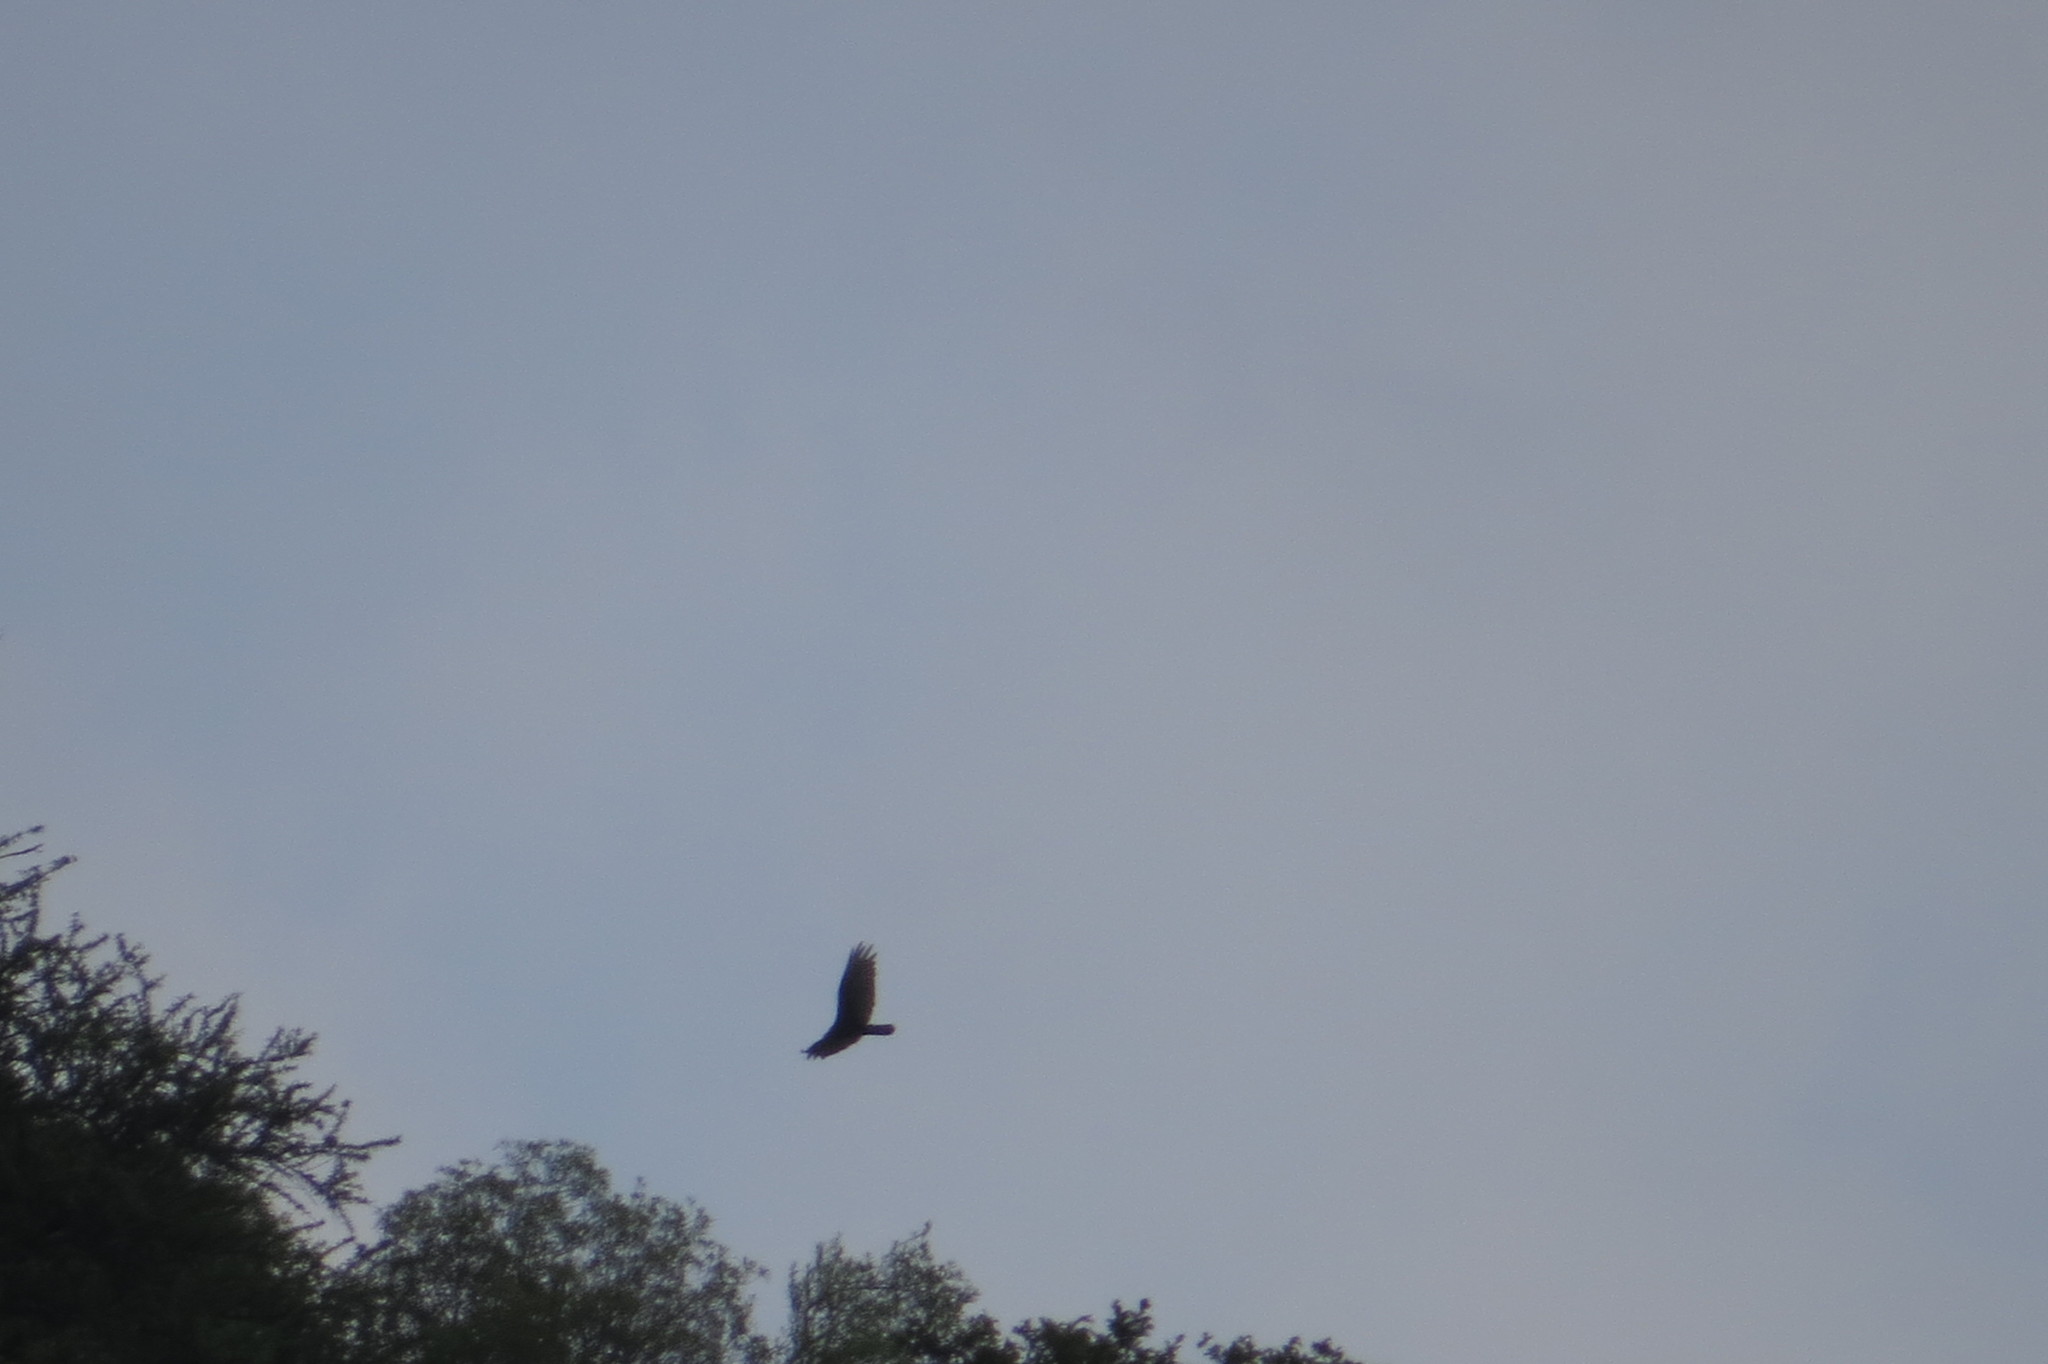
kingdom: Animalia
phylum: Chordata
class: Aves
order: Accipitriformes
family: Cathartidae
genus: Cathartes
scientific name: Cathartes aura
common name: Turkey vulture
